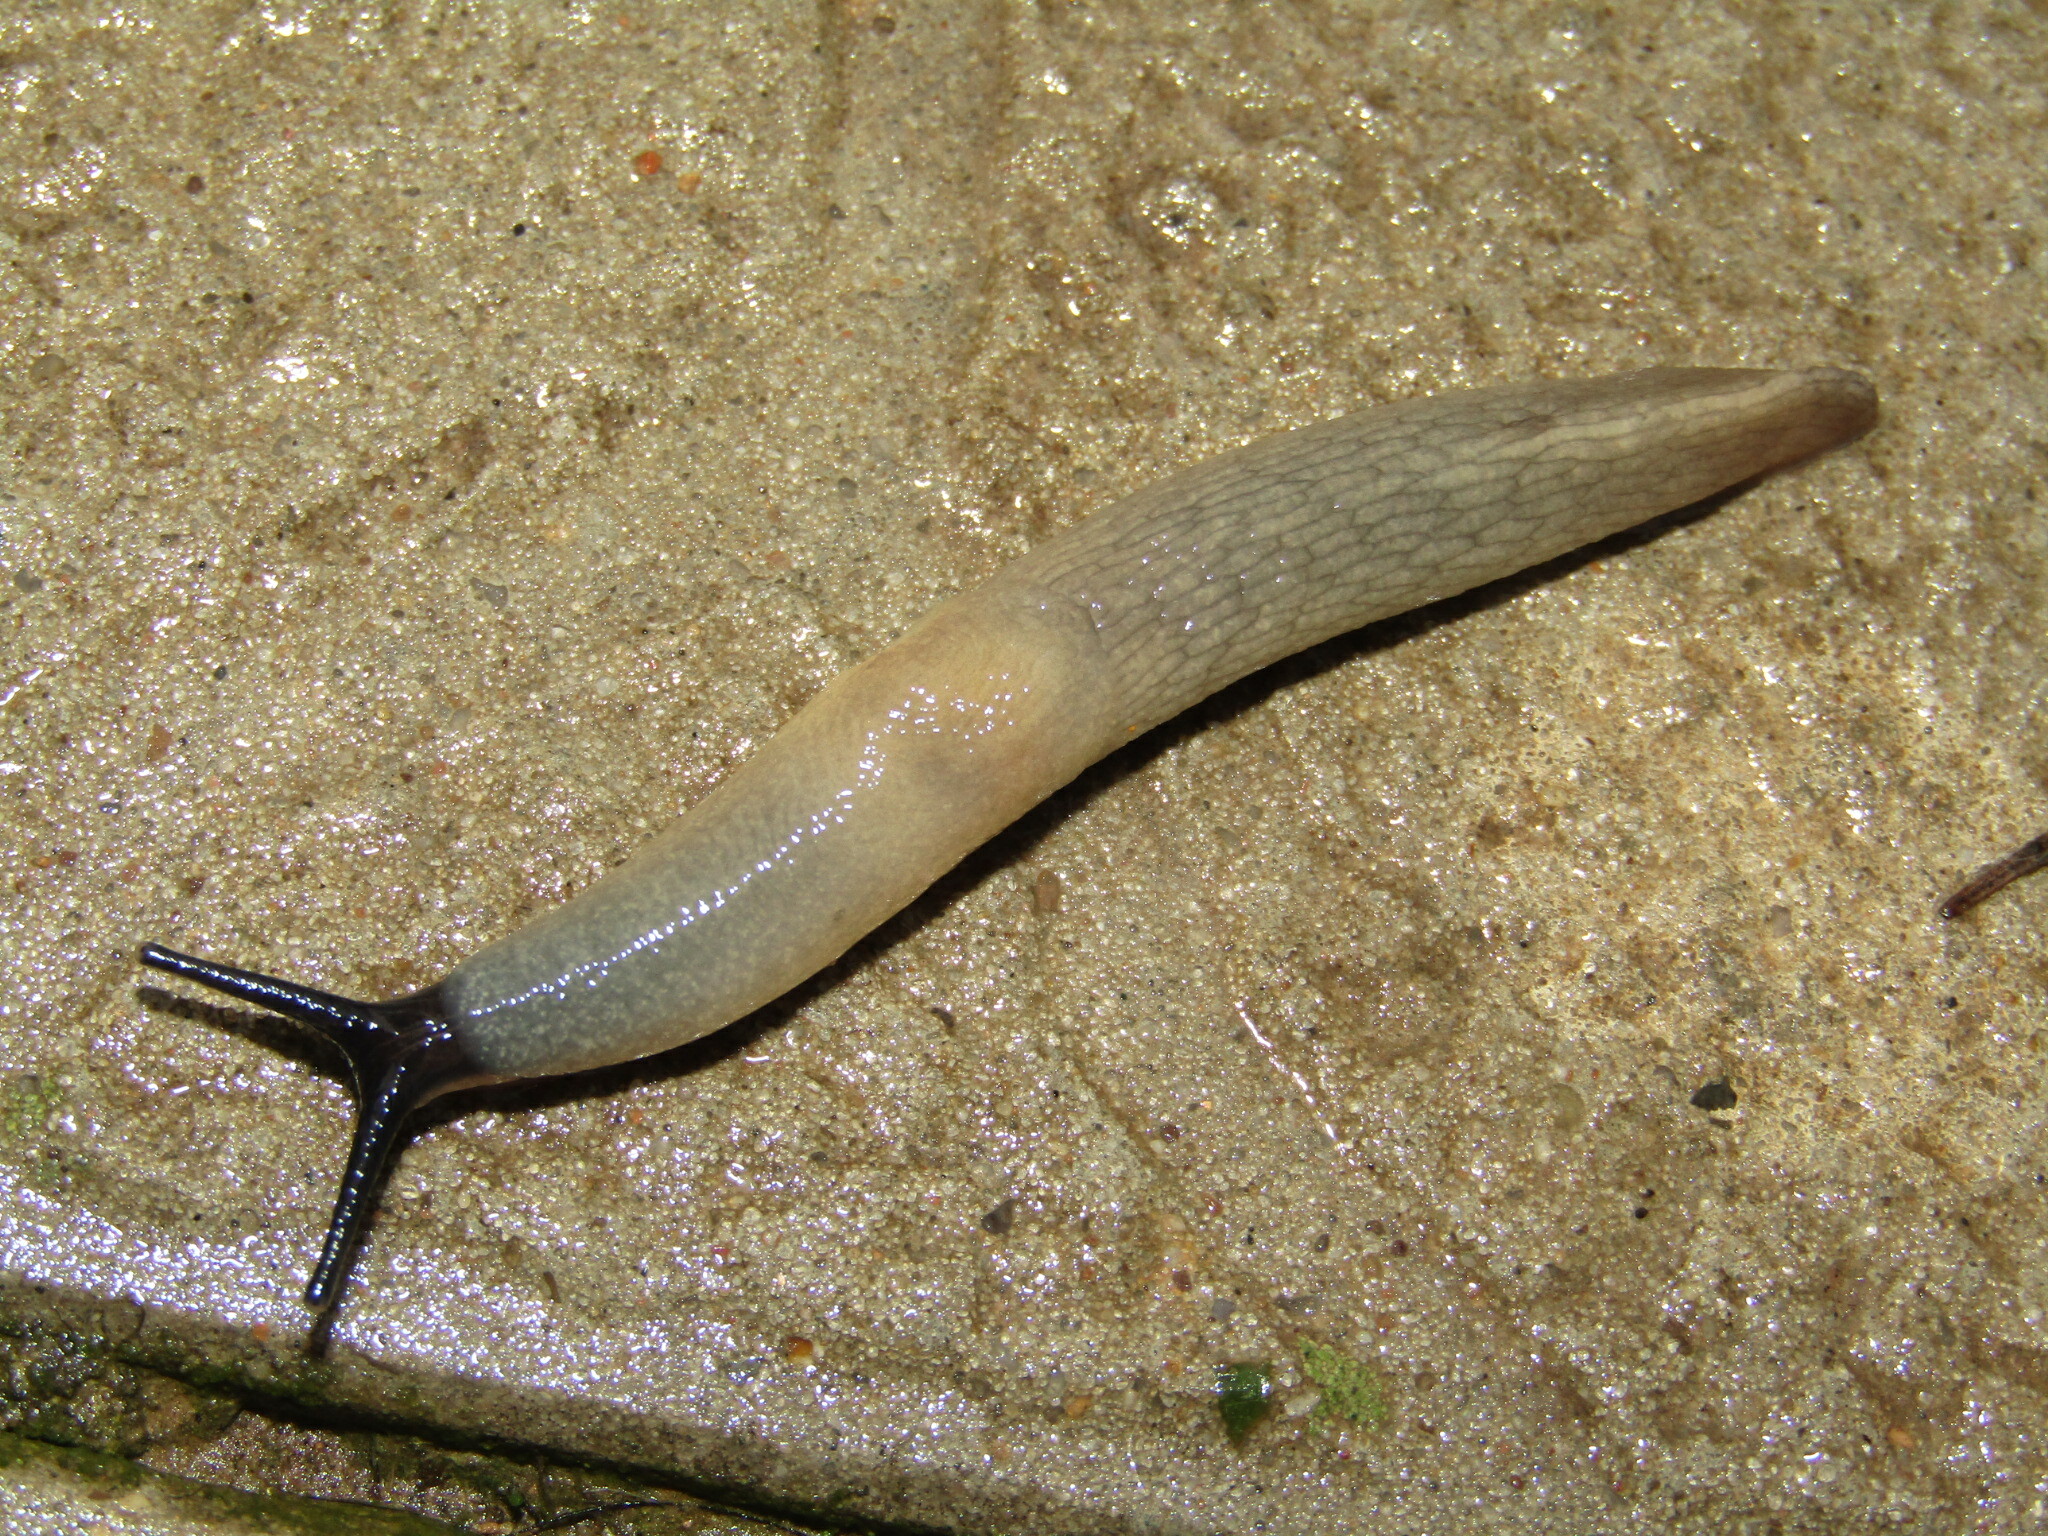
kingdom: Animalia
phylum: Mollusca
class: Gastropoda
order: Stylommatophora
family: Agriolimacidae
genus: Krynickillus
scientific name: Krynickillus melanocephalus
